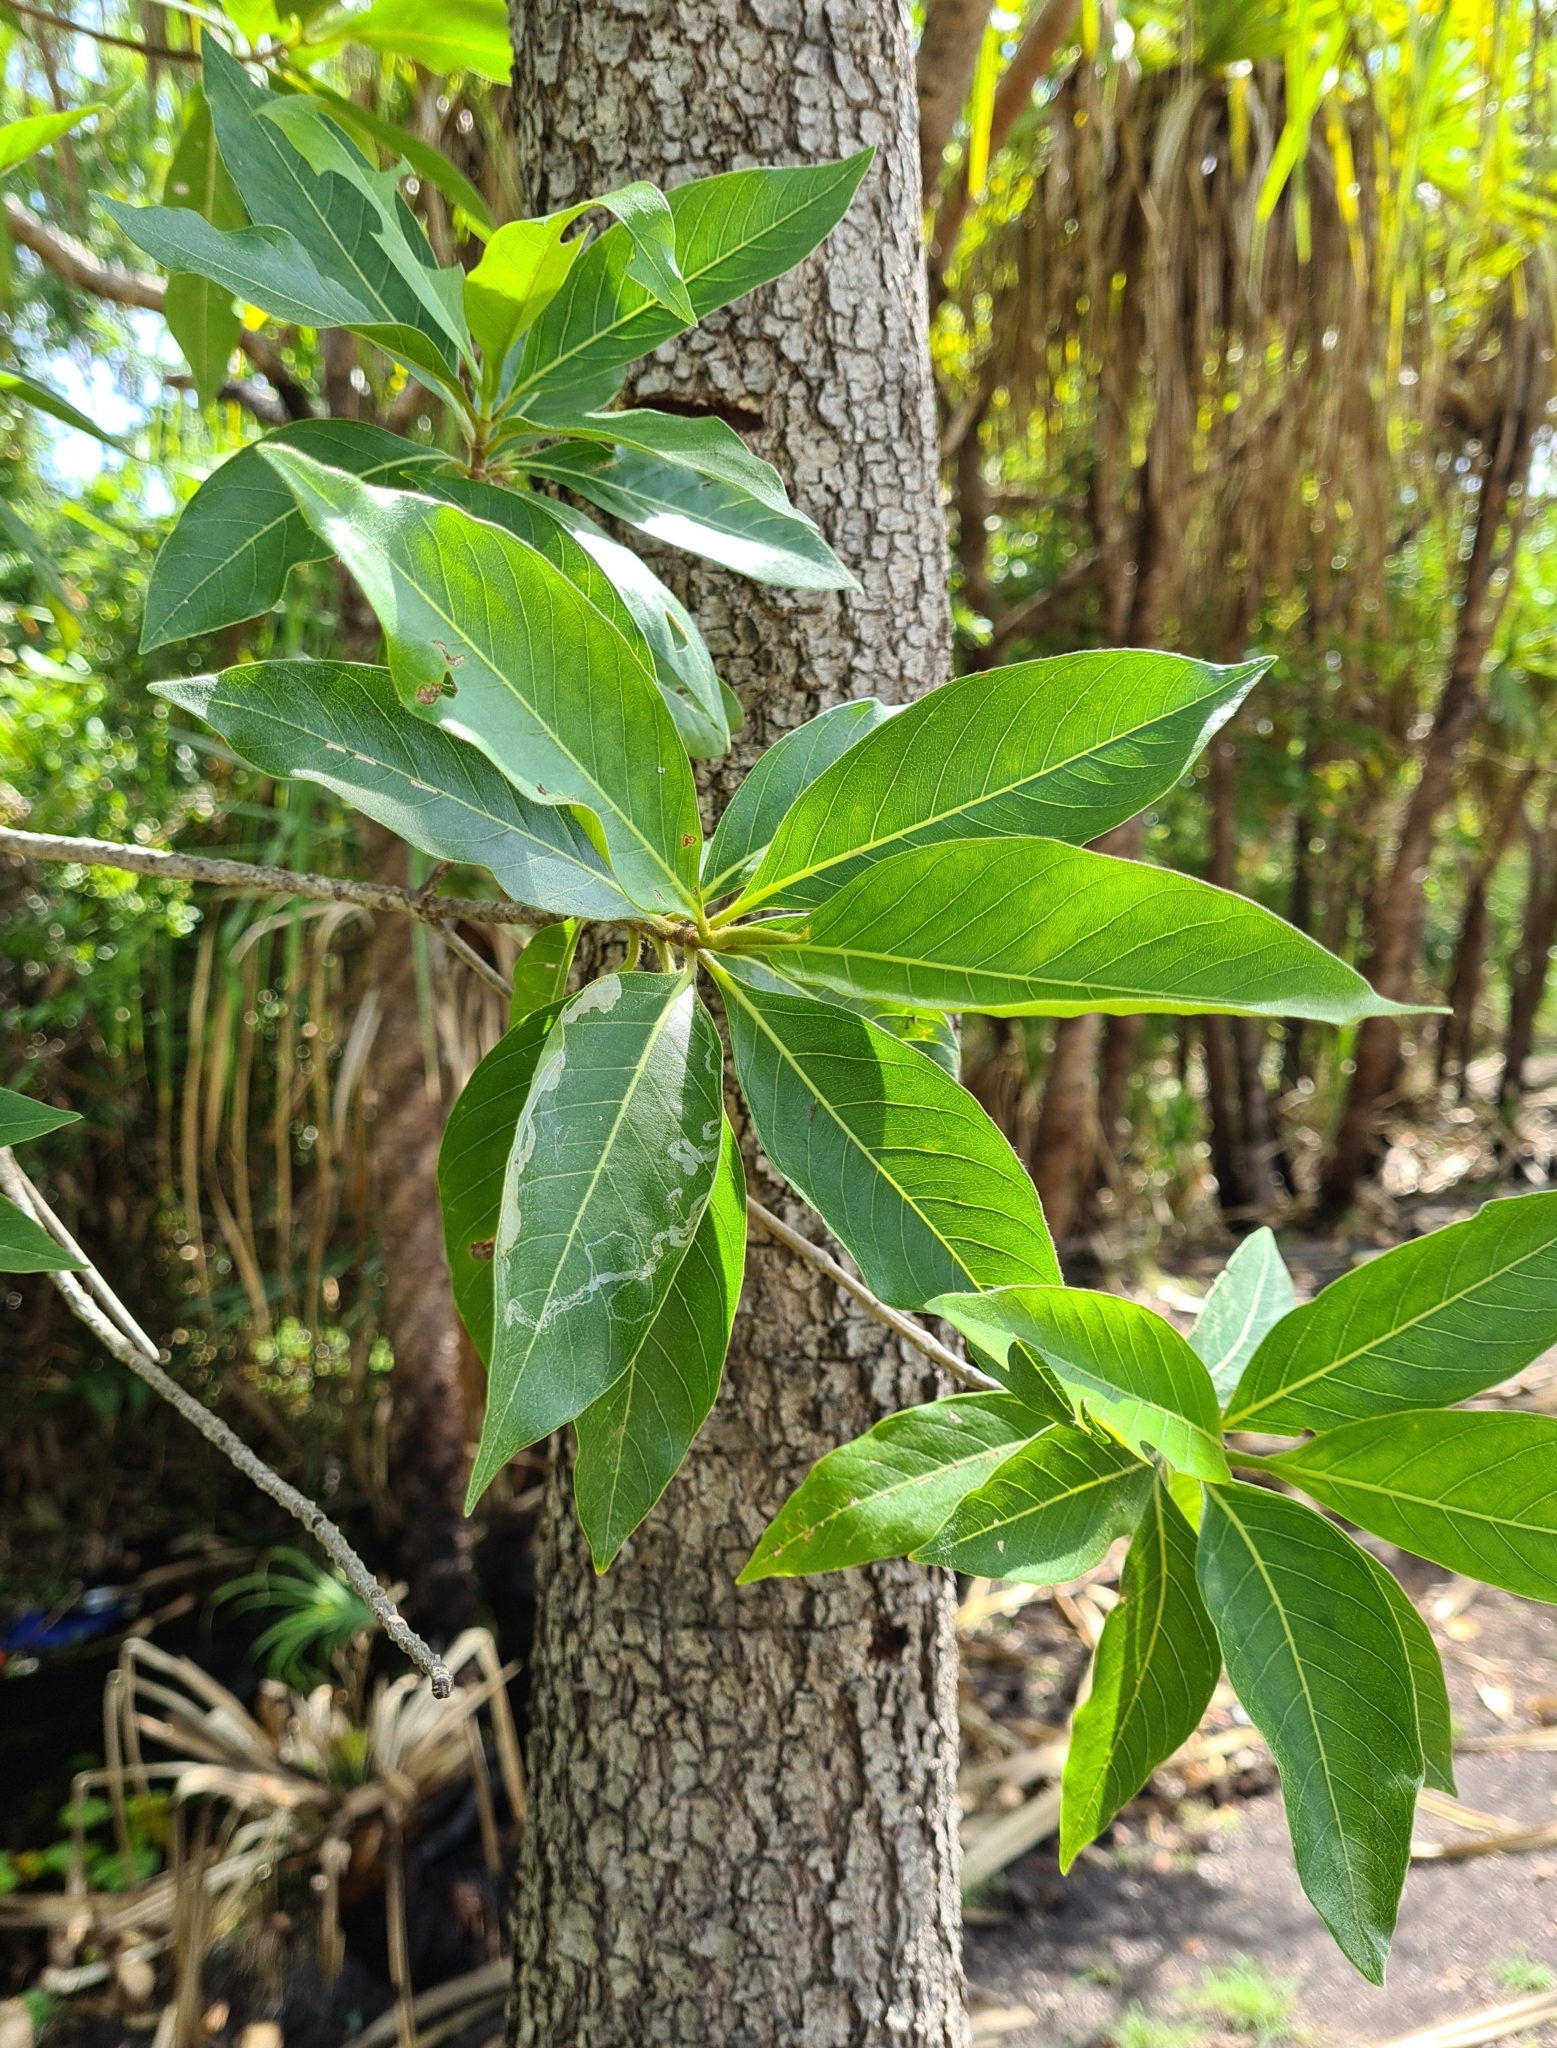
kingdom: Plantae
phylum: Tracheophyta
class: Magnoliopsida
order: Myrtales
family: Combretaceae
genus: Terminalia
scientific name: Terminalia erythrocarpa
